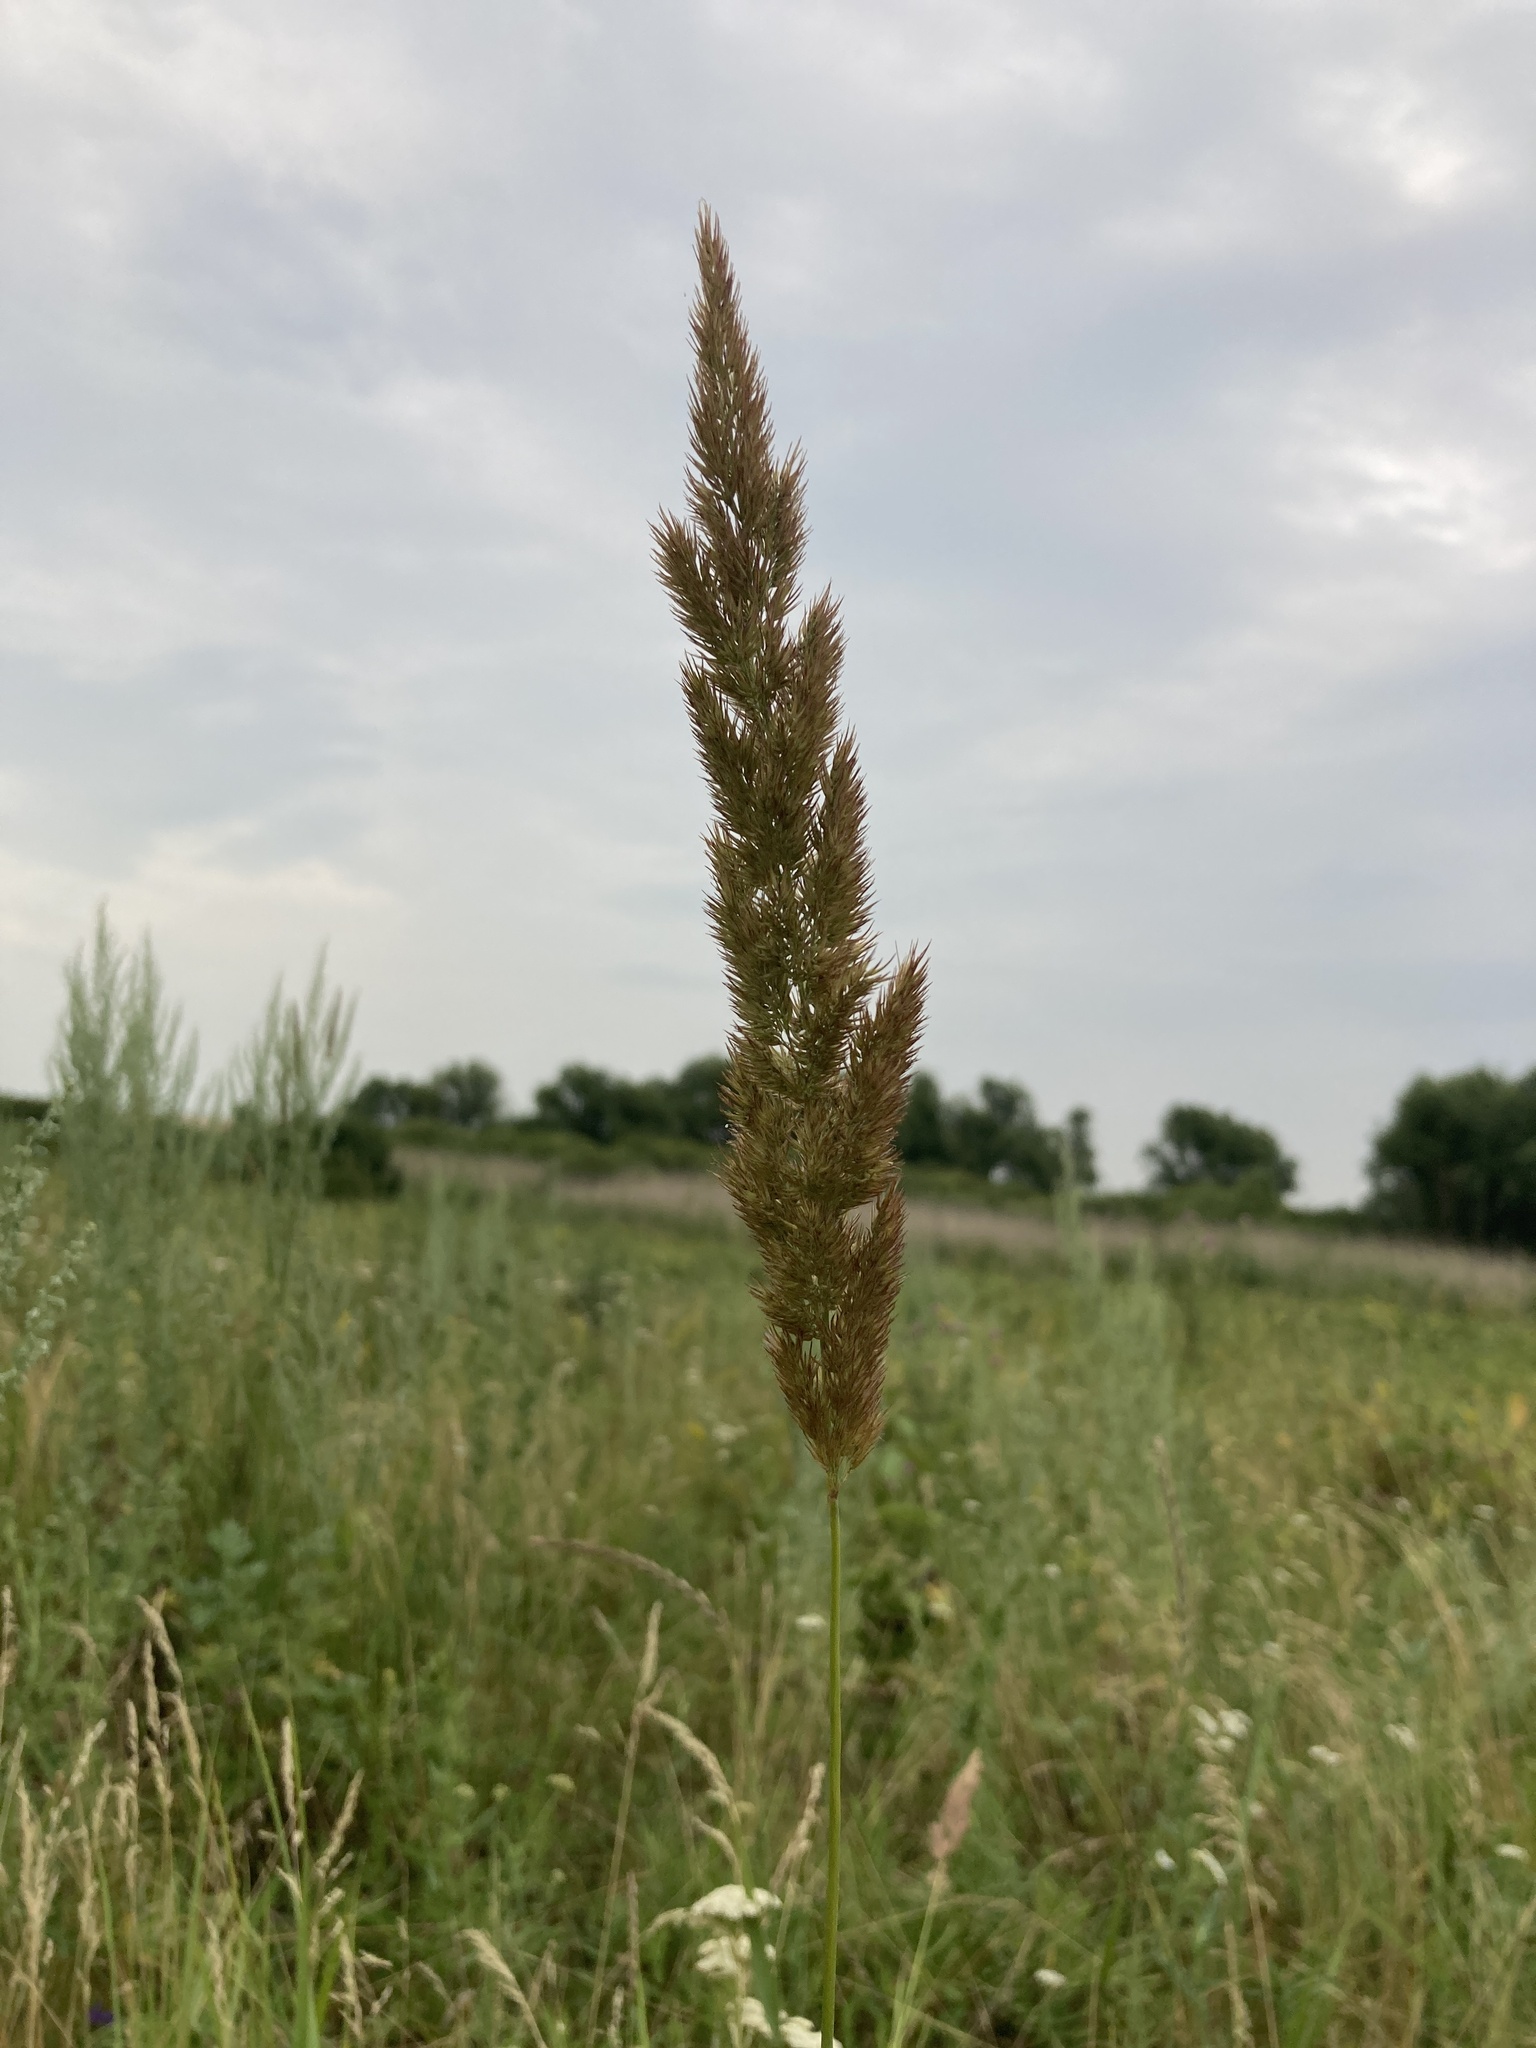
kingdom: Plantae
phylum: Tracheophyta
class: Liliopsida
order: Poales
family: Poaceae
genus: Calamagrostis
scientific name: Calamagrostis epigejos
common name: Wood small-reed
